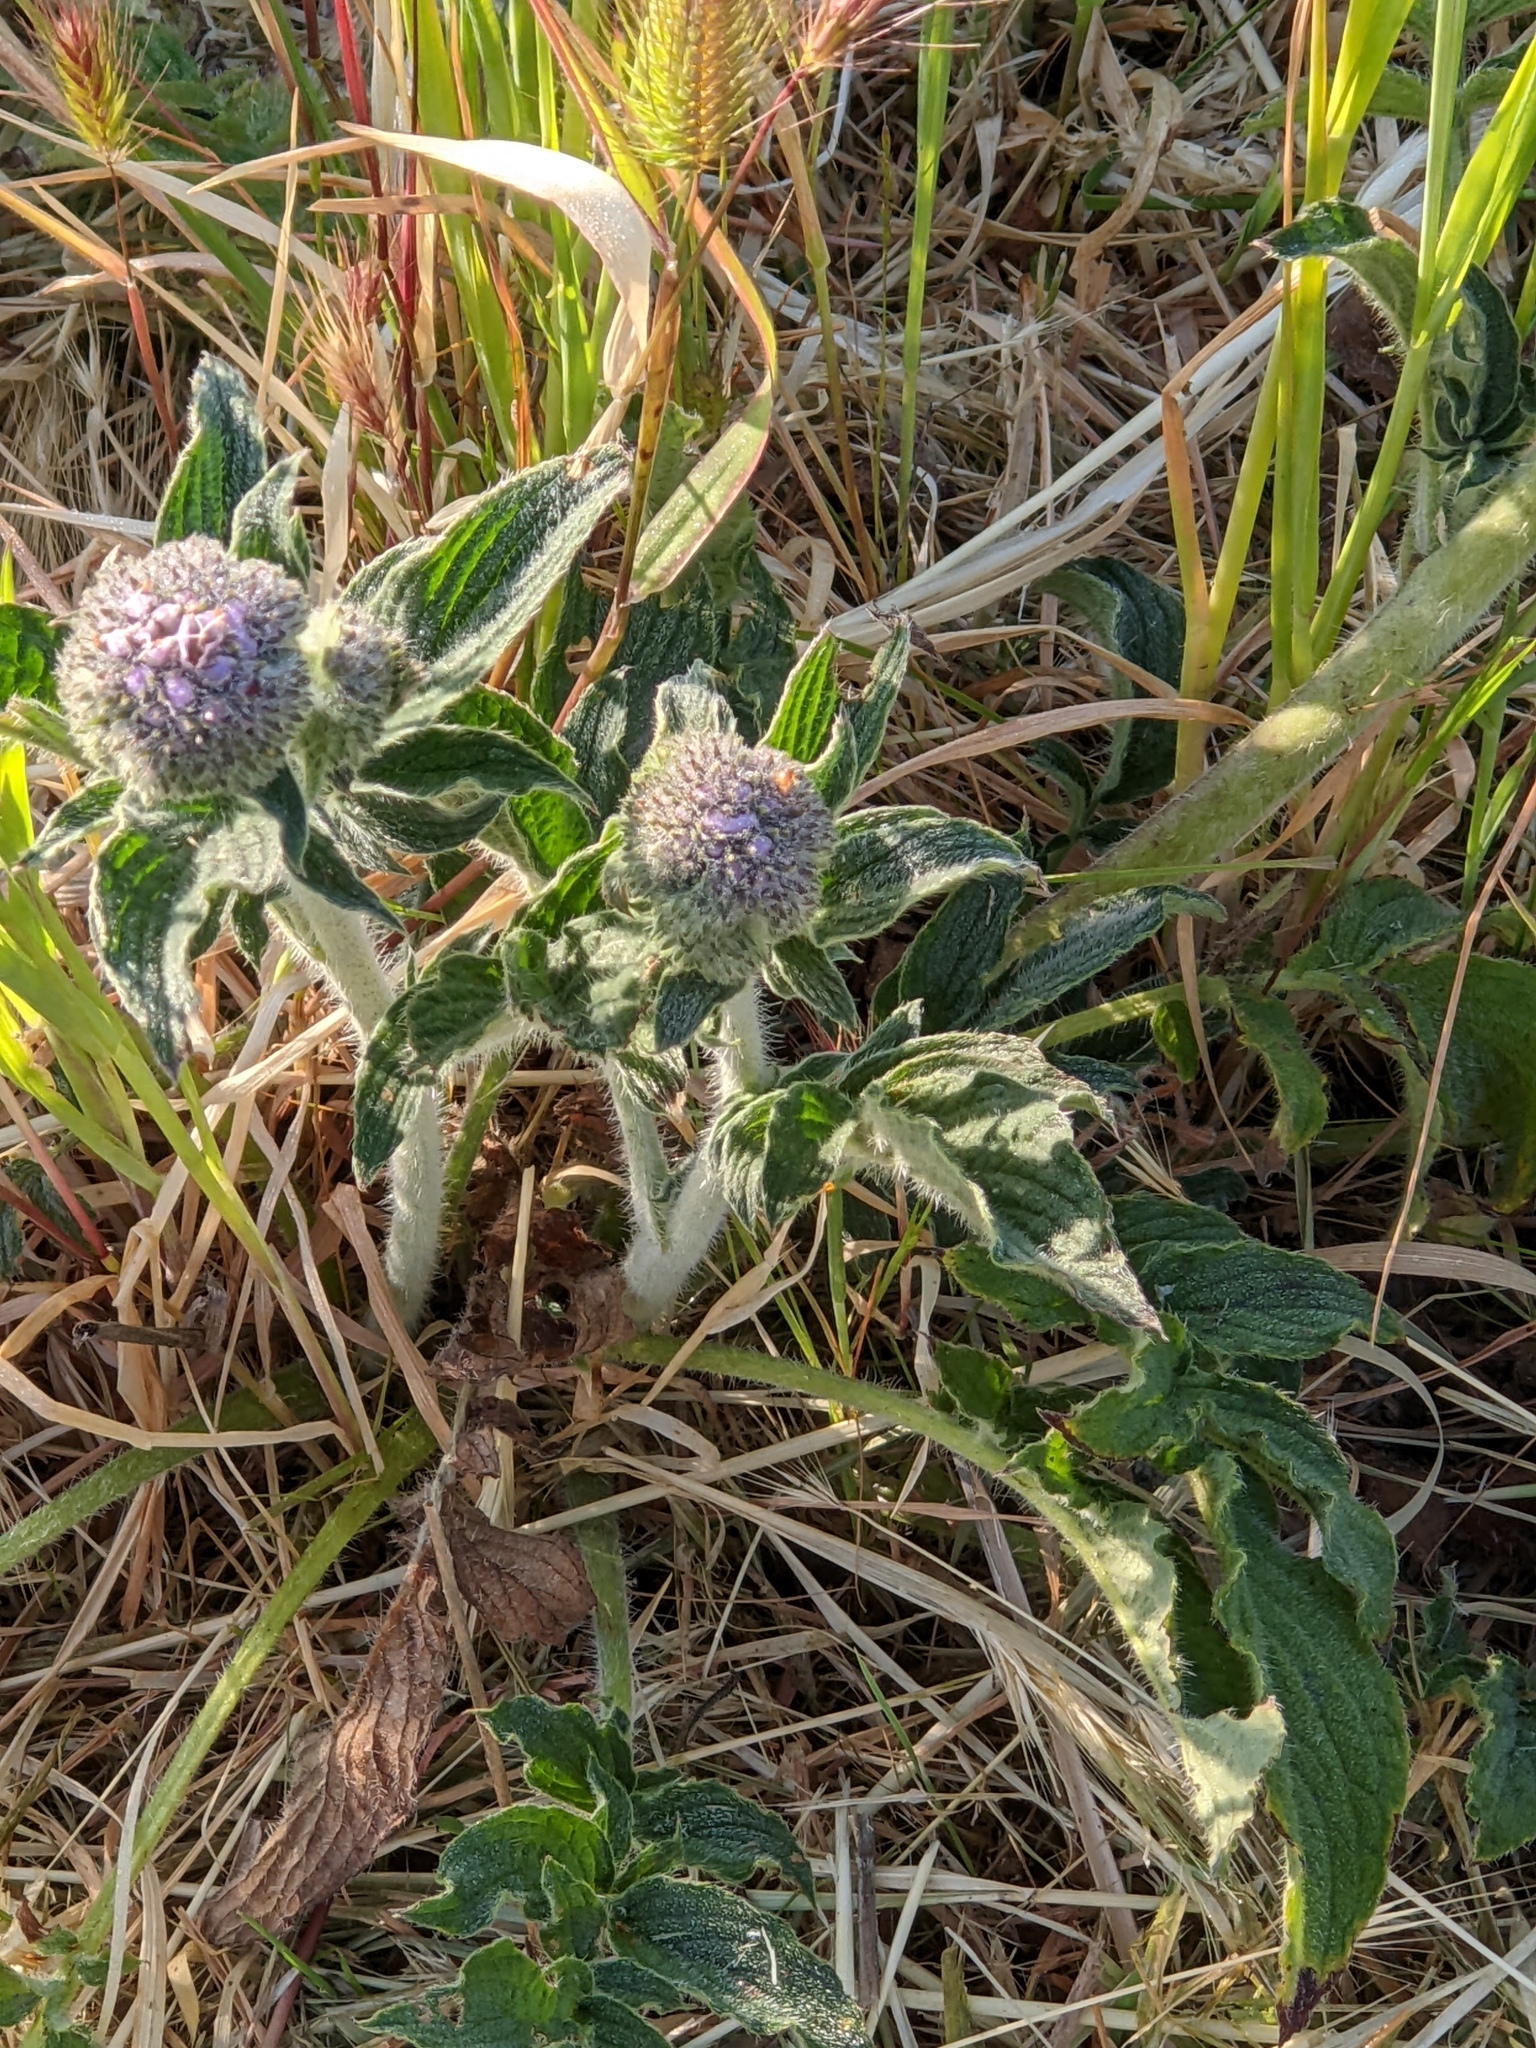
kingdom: Plantae
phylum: Tracheophyta
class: Magnoliopsida
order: Boraginales
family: Hydrophyllaceae
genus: Phacelia
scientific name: Phacelia californica
